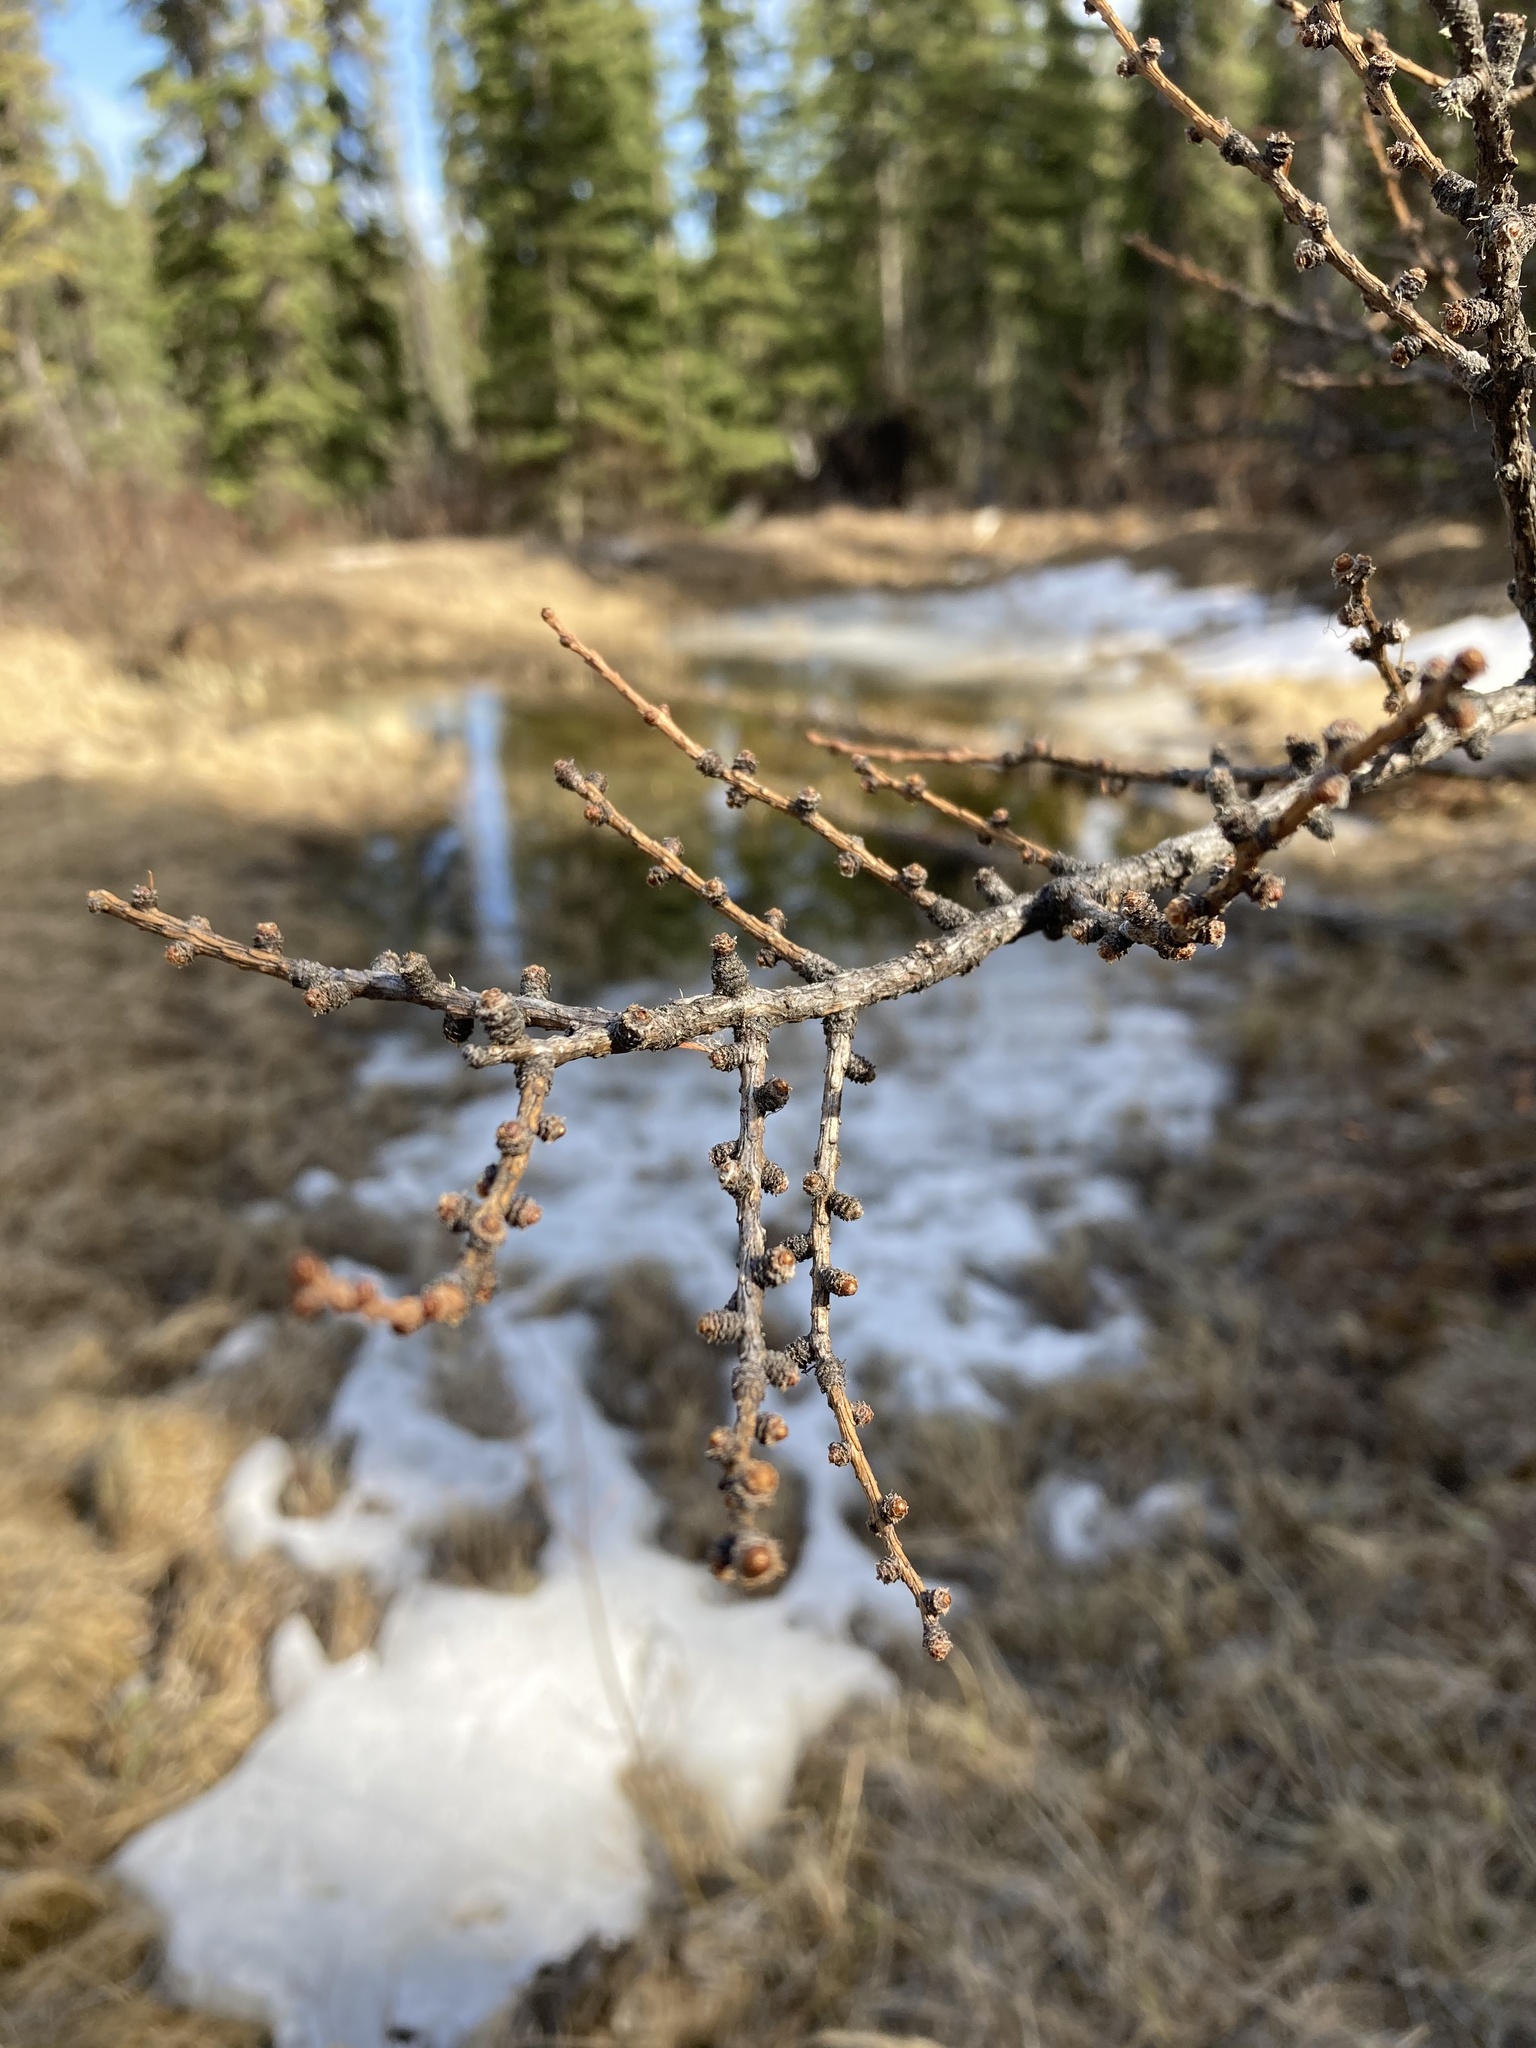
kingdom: Plantae
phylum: Tracheophyta
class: Pinopsida
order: Pinales
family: Pinaceae
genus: Larix
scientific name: Larix laricina
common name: American larch
